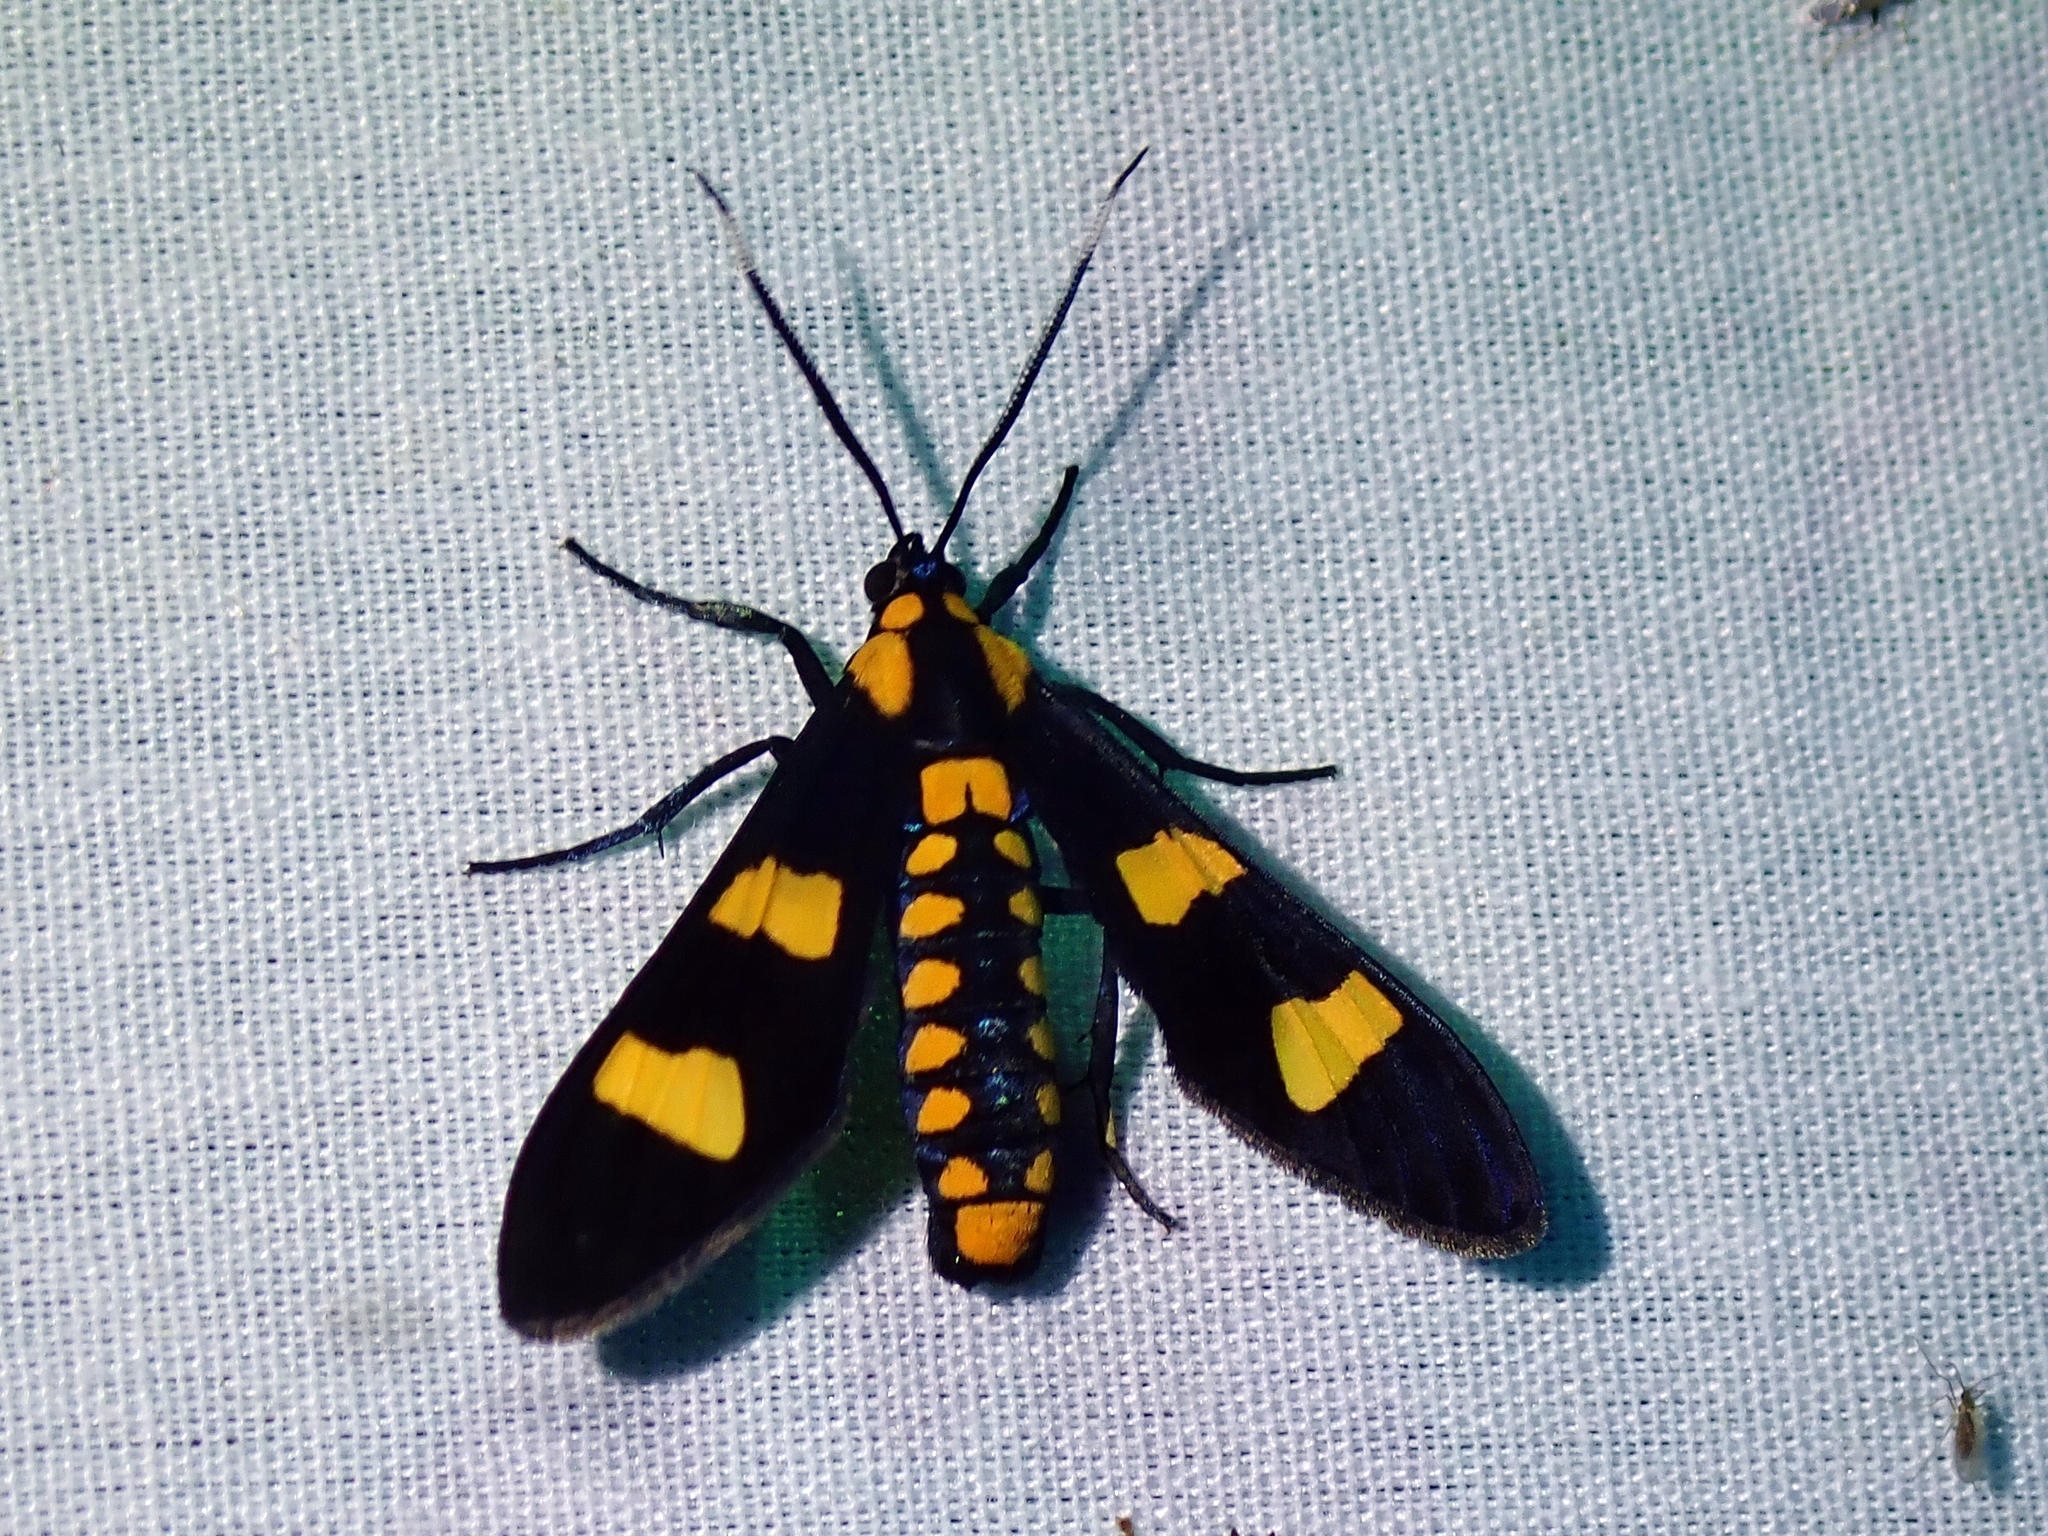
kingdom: Animalia
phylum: Arthropoda
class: Insecta
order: Lepidoptera
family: Erebidae
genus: Phoenicoprocta
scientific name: Phoenicoprocta hampsonii
